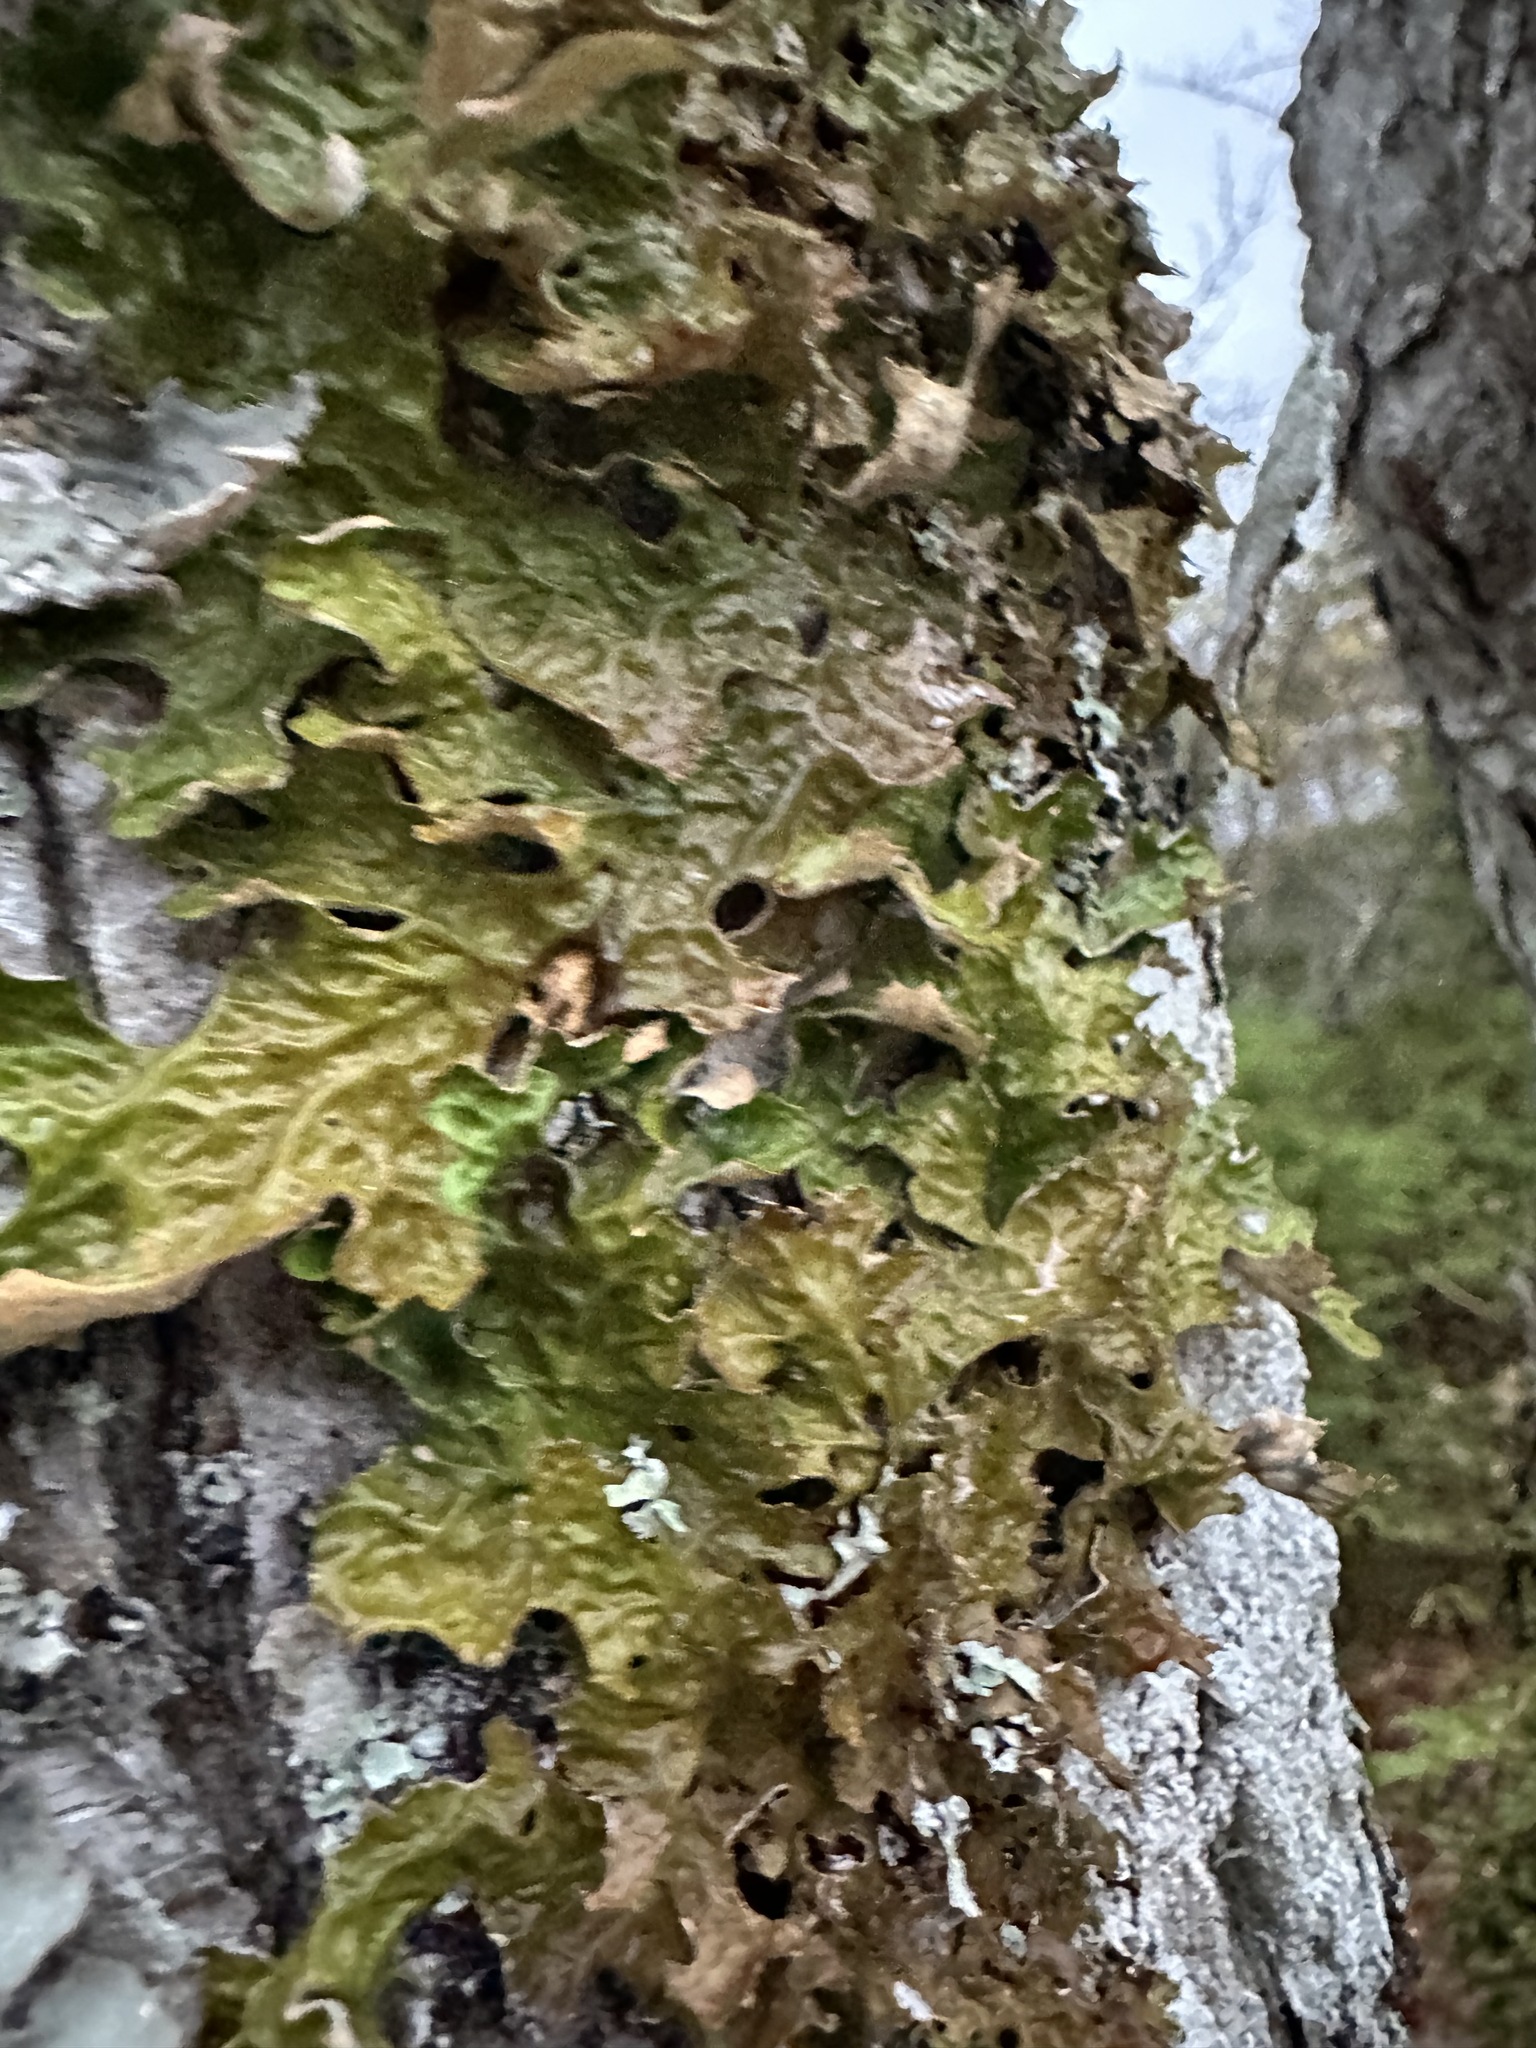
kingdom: Fungi
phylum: Ascomycota
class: Lecanoromycetes
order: Peltigerales
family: Lobariaceae
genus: Lobaria
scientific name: Lobaria pulmonaria
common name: Lungwort
